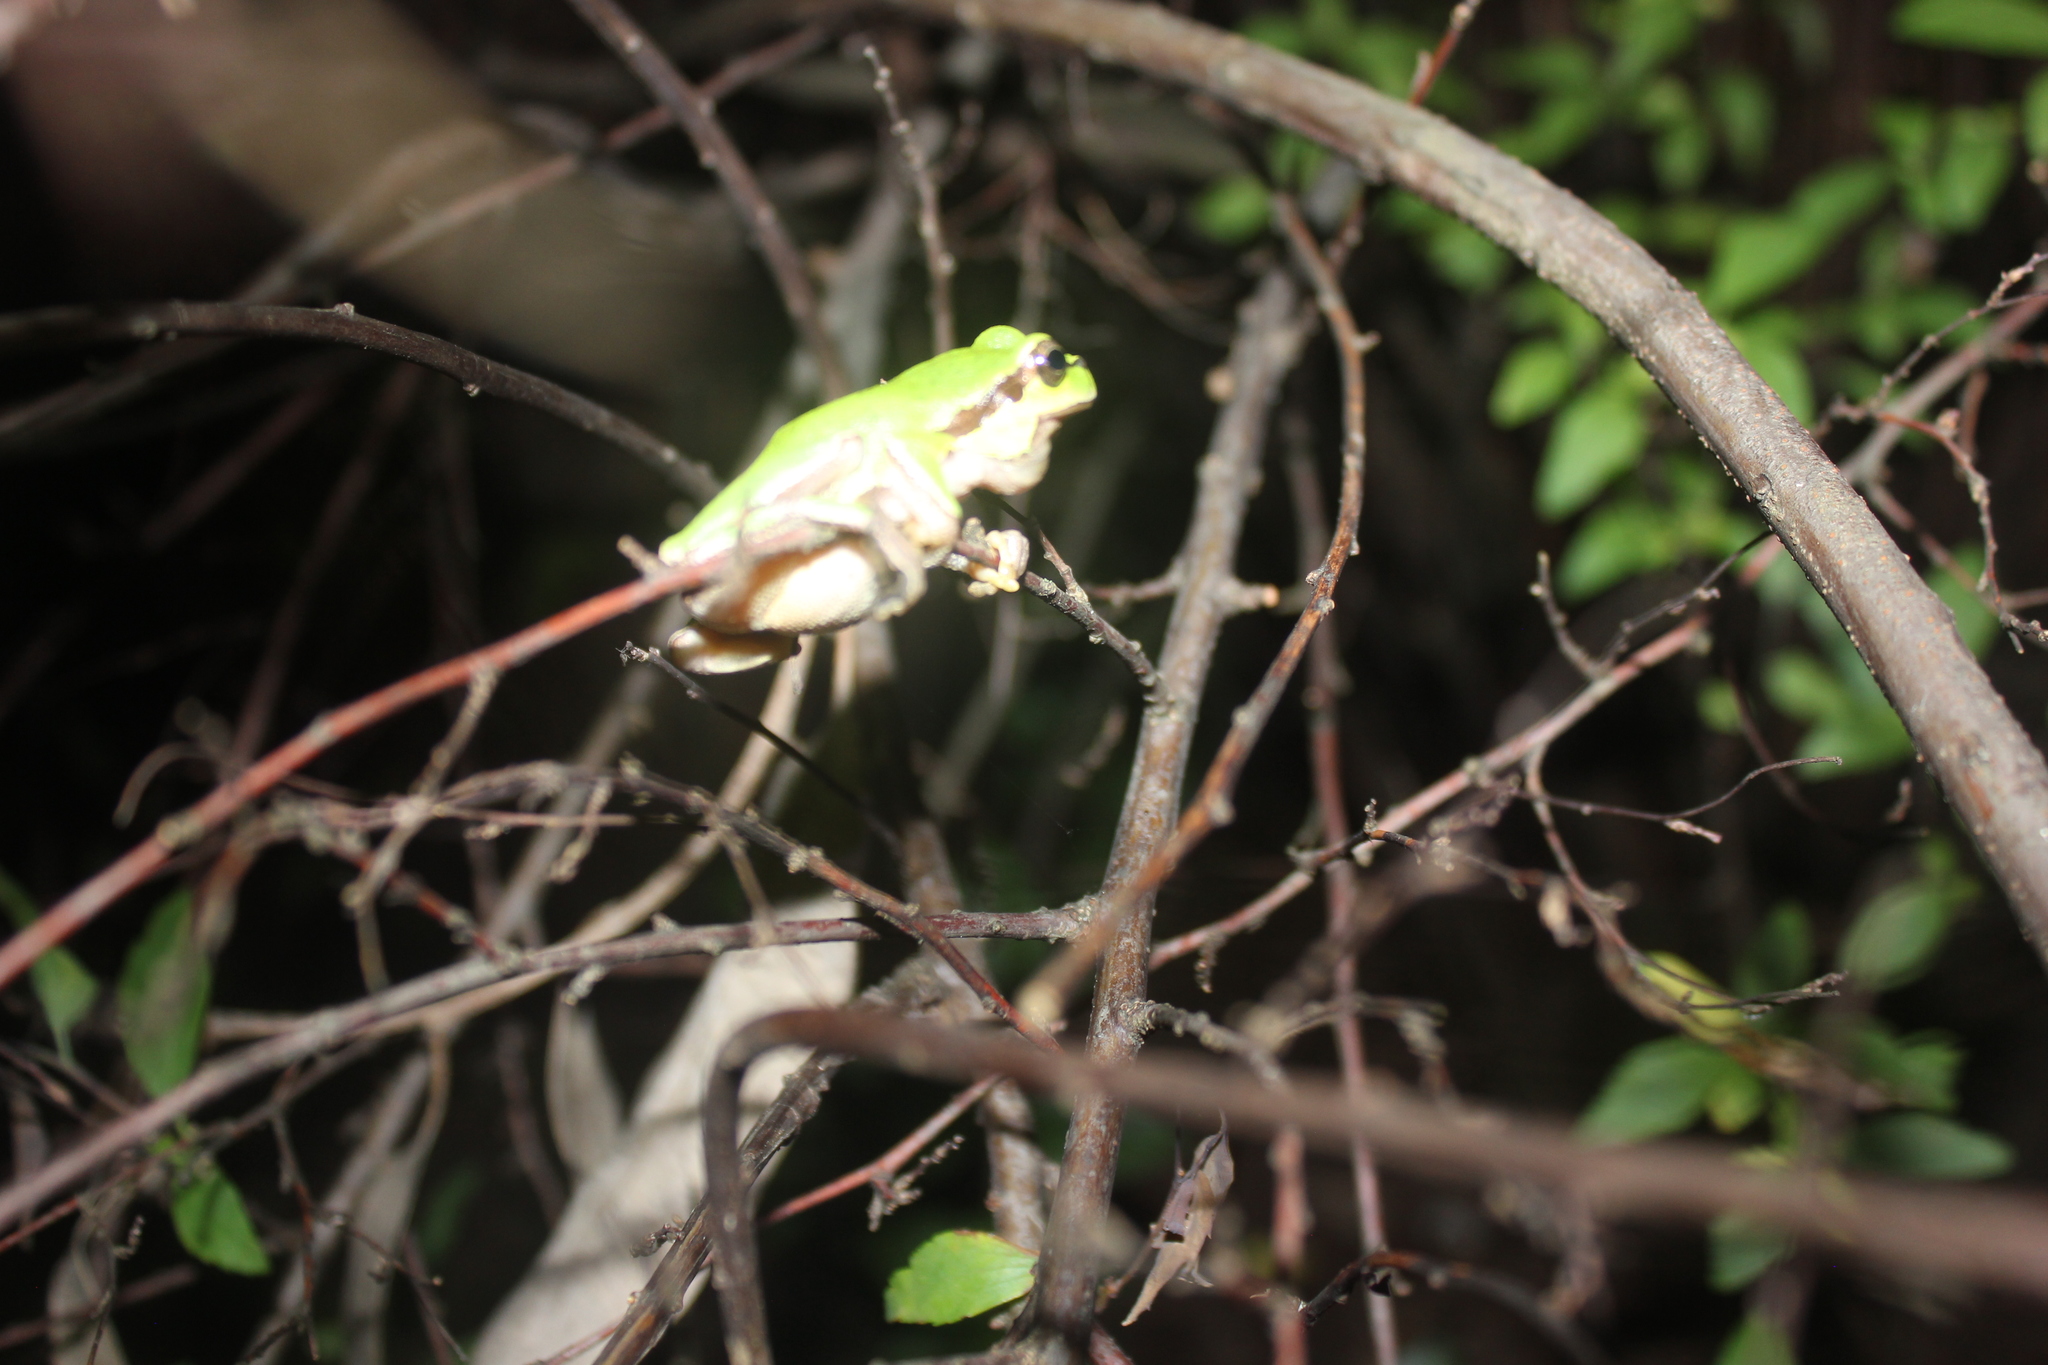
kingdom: Animalia
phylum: Chordata
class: Amphibia
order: Anura
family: Hylidae
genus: Hyla
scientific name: Hyla orientalis
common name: Caucasian treefrog
